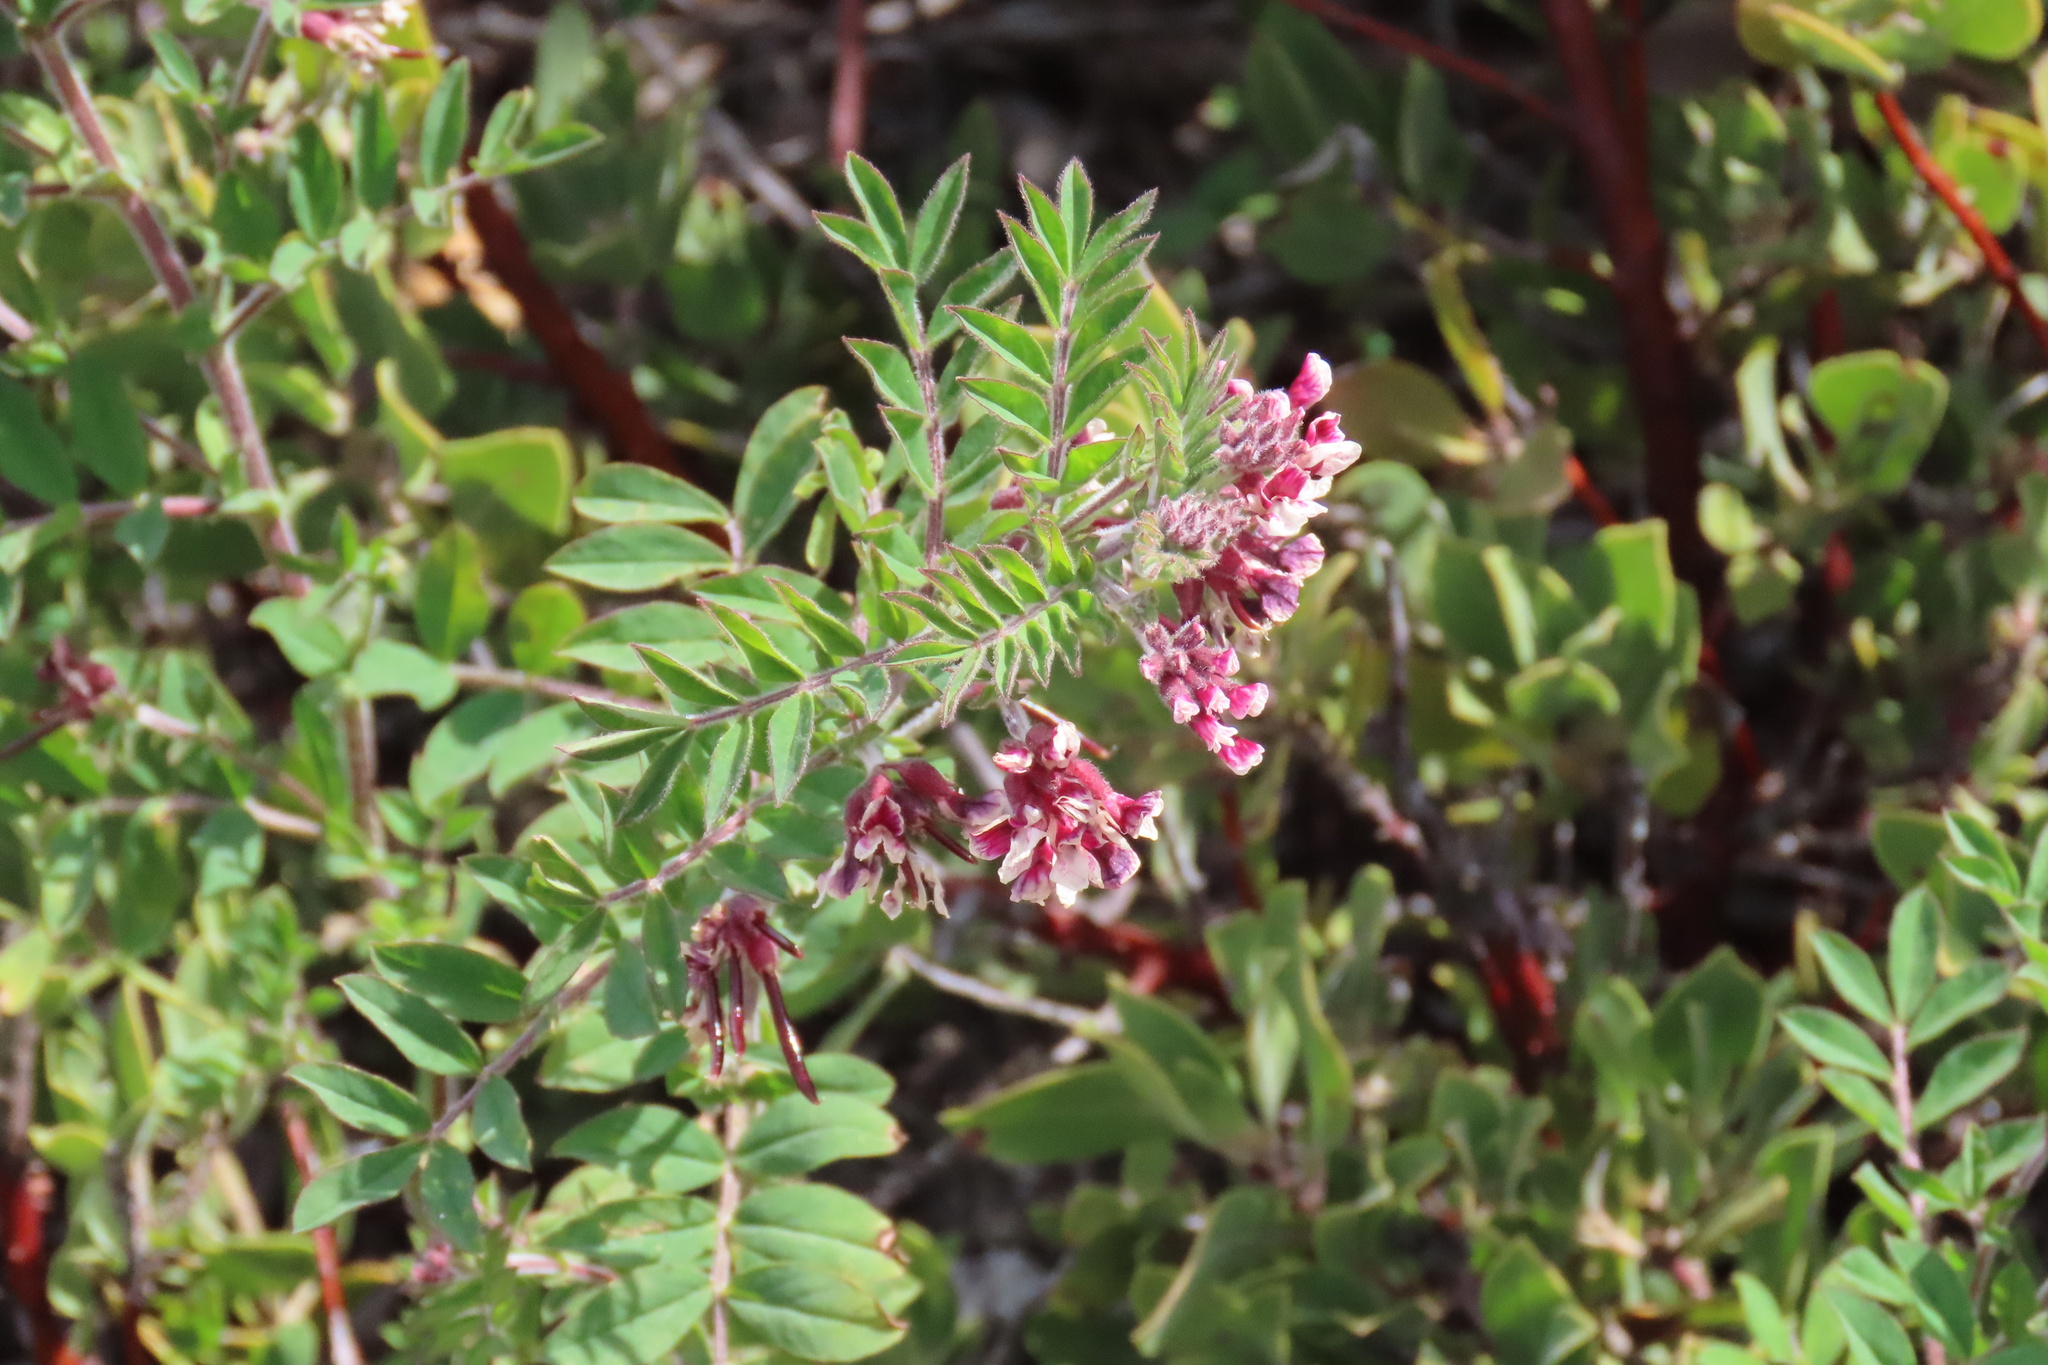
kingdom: Plantae
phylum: Tracheophyta
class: Magnoliopsida
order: Fabales
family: Fabaceae
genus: Hosackia
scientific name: Hosackia stipularis
